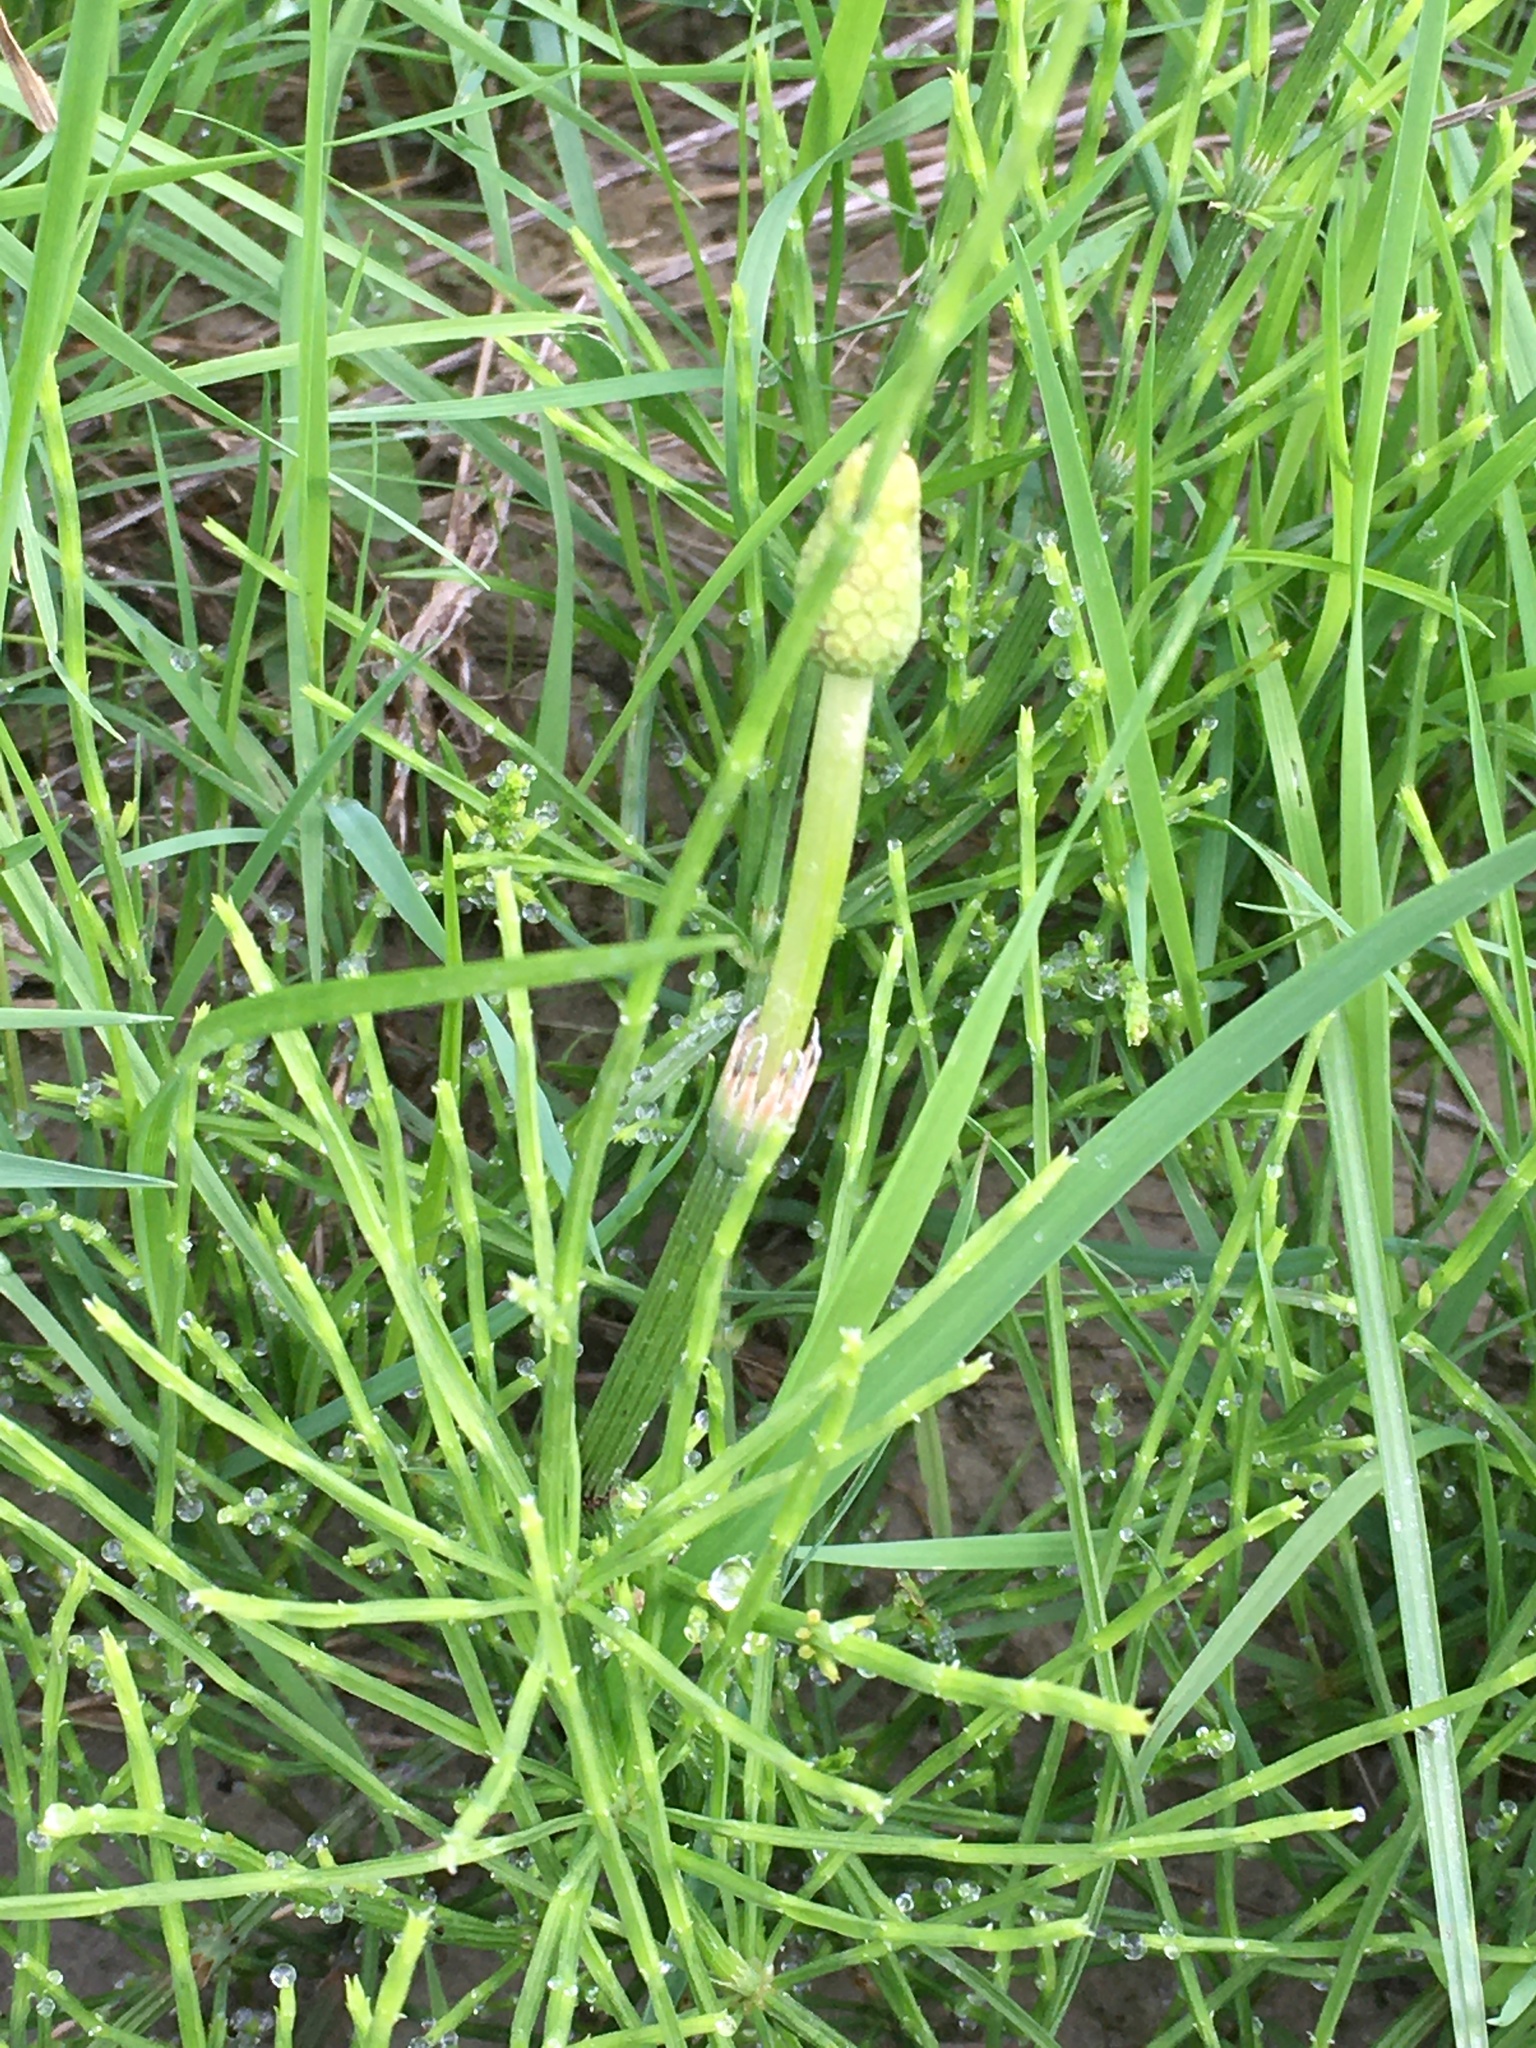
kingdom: Plantae
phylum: Tracheophyta
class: Polypodiopsida
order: Equisetales
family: Equisetaceae
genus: Equisetum
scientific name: Equisetum arvense
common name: Field horsetail
